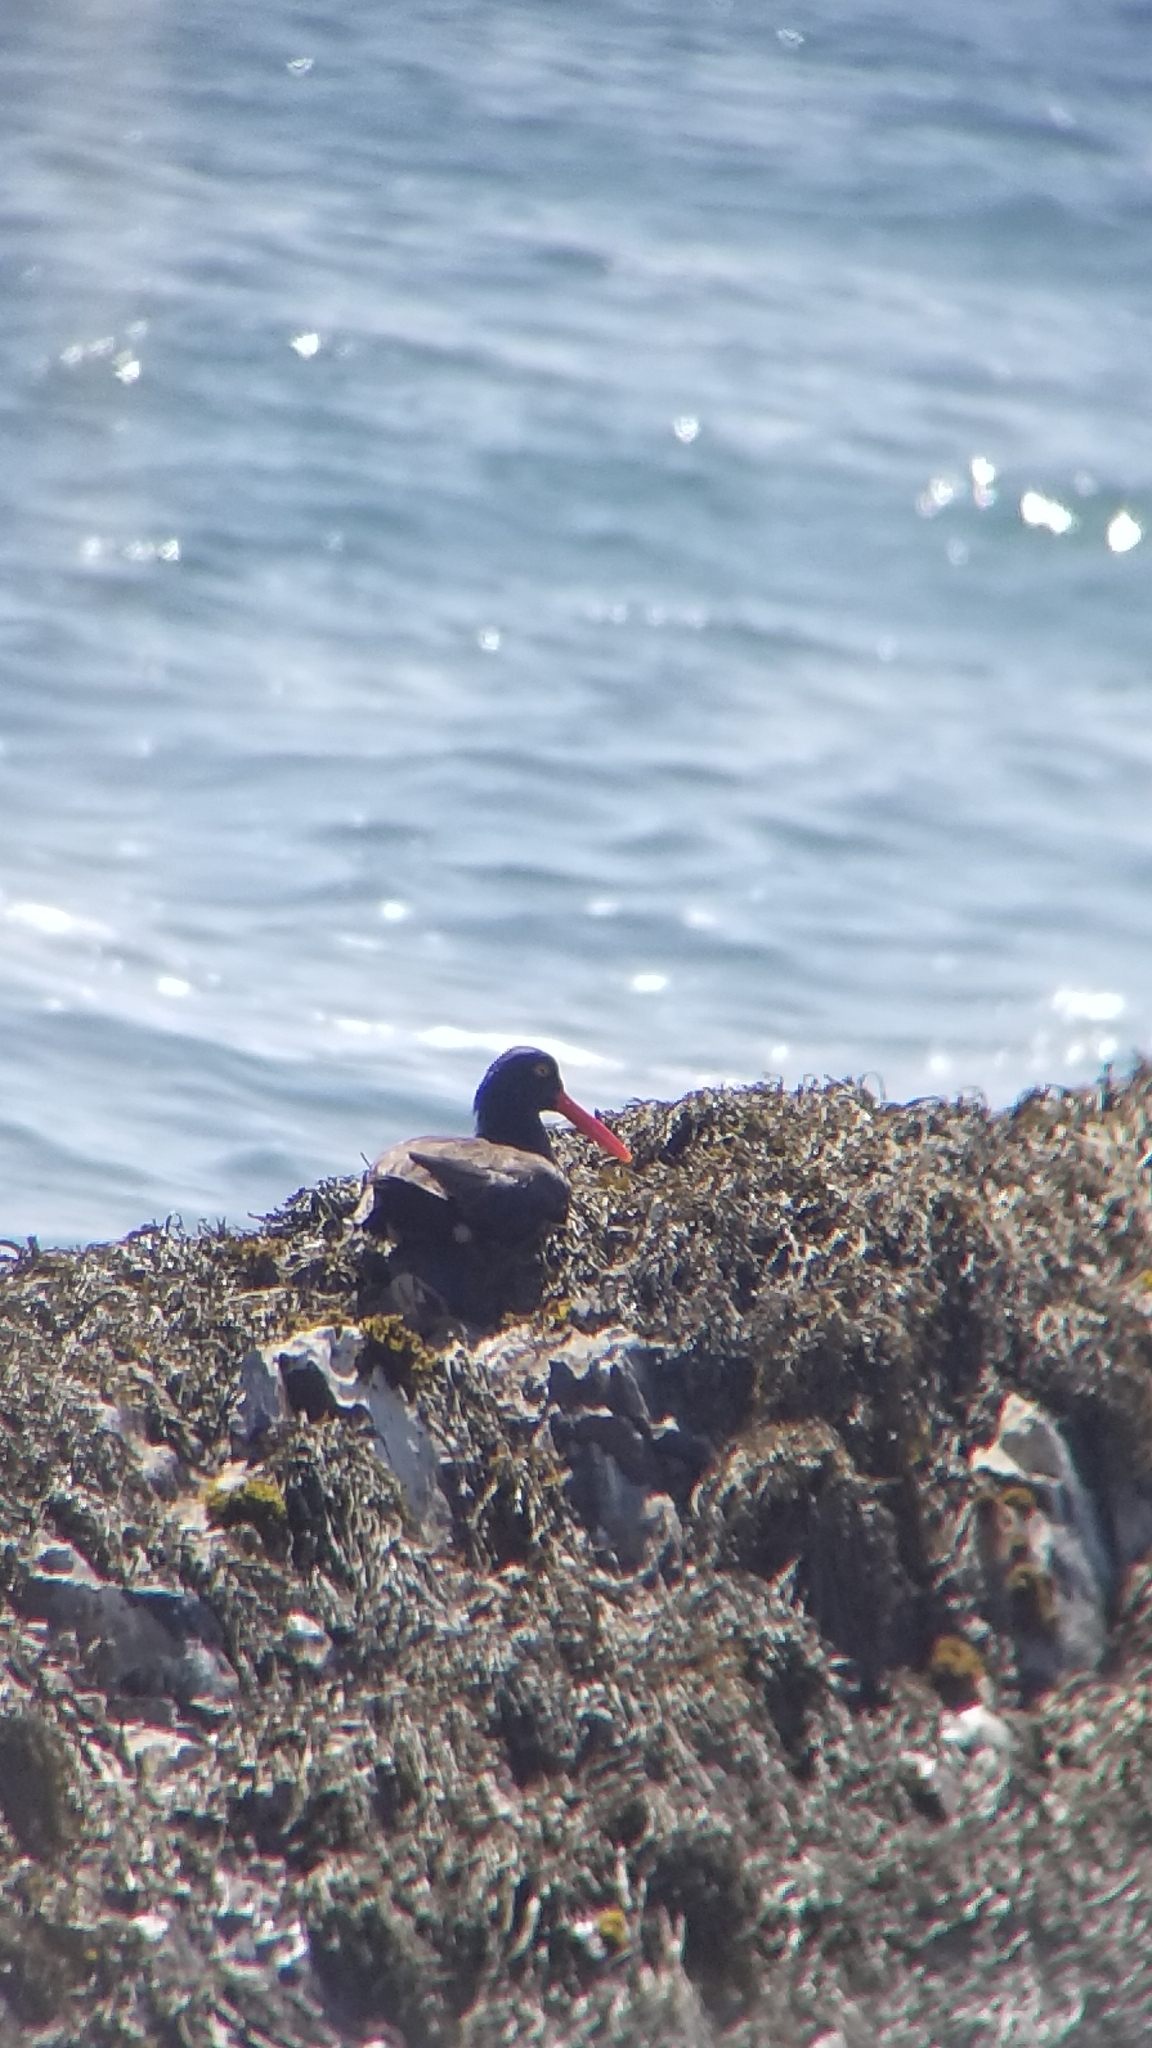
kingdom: Animalia
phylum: Chordata
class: Aves
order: Charadriiformes
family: Haematopodidae
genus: Haematopus
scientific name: Haematopus bachmani
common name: Black oystercatcher
